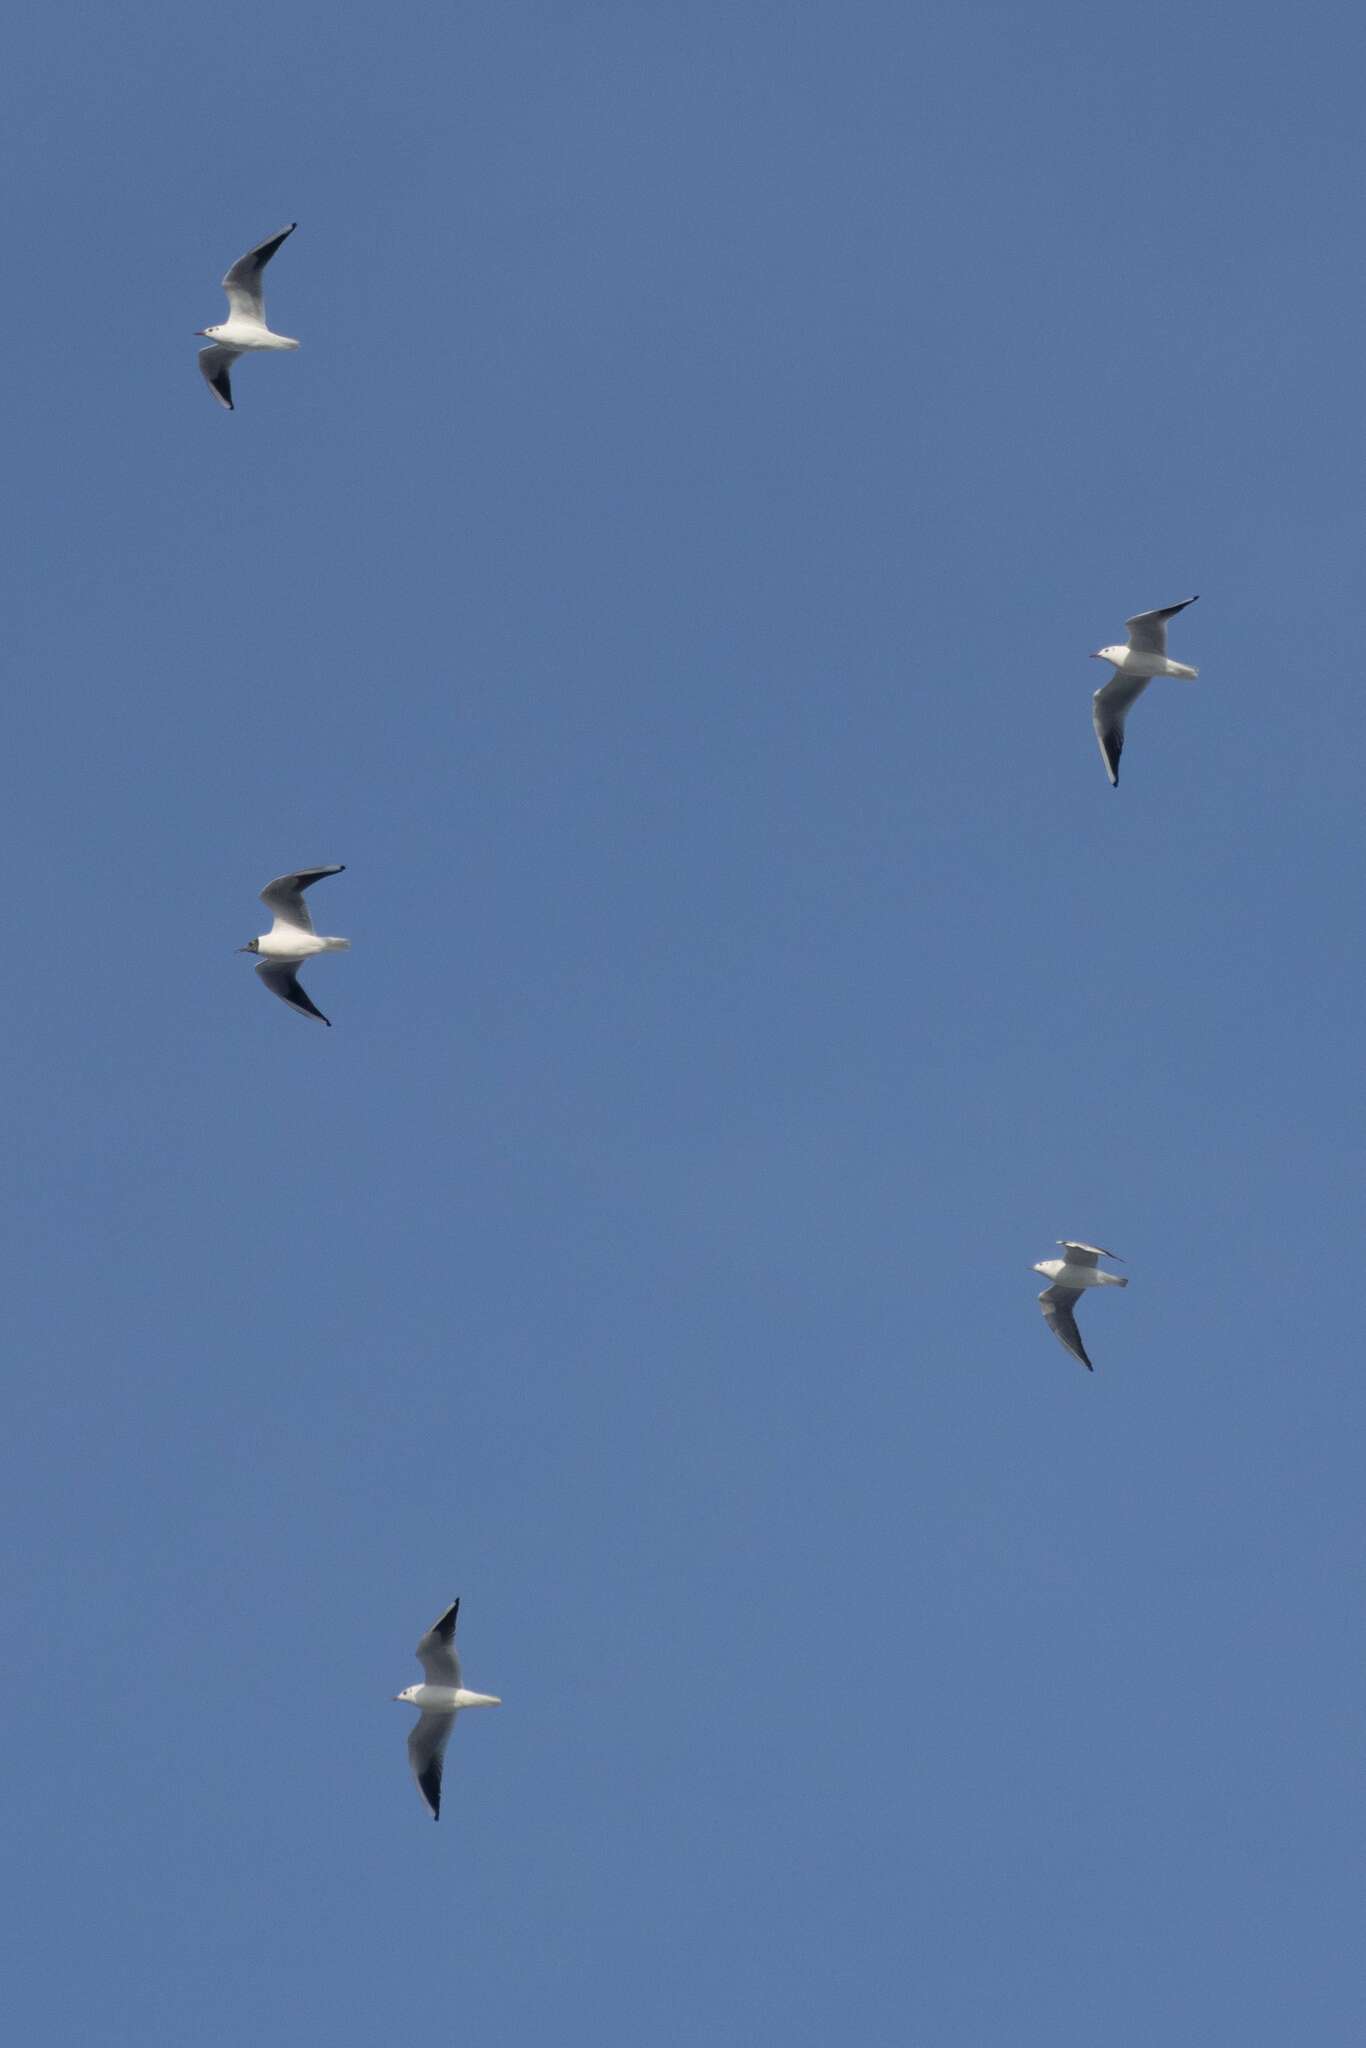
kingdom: Animalia
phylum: Chordata
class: Aves
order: Charadriiformes
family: Laridae
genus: Chroicocephalus
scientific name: Chroicocephalus ridibundus
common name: Black-headed gull
